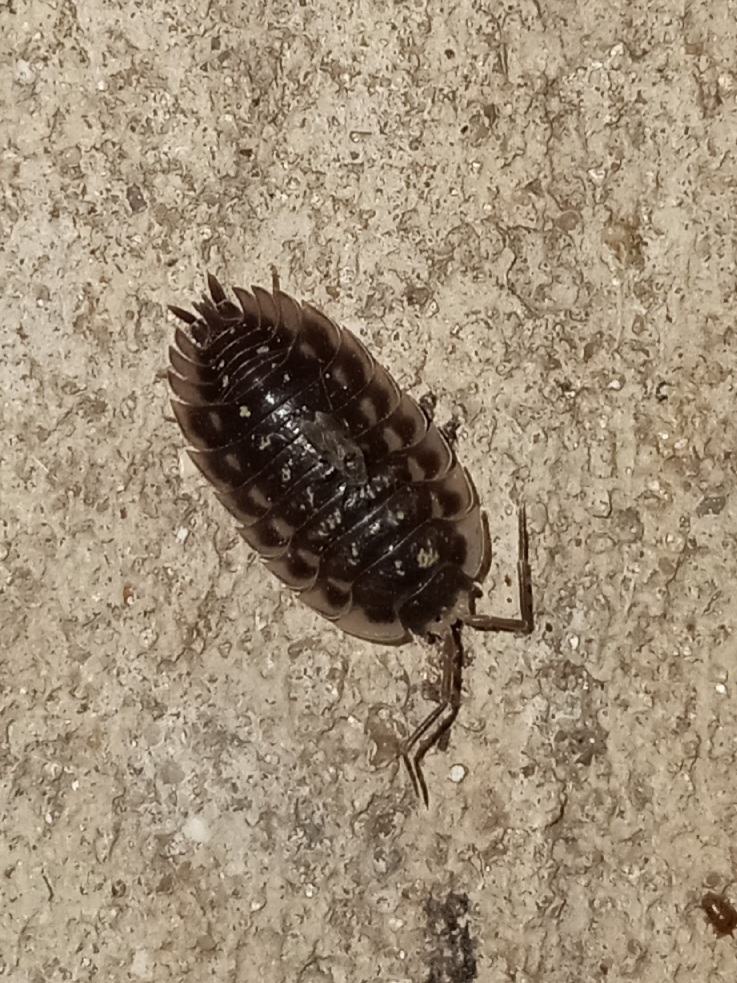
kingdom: Animalia
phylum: Arthropoda
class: Malacostraca
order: Isopoda
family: Oniscidae
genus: Oniscus
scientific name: Oniscus asellus
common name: Common shiny woodlouse
